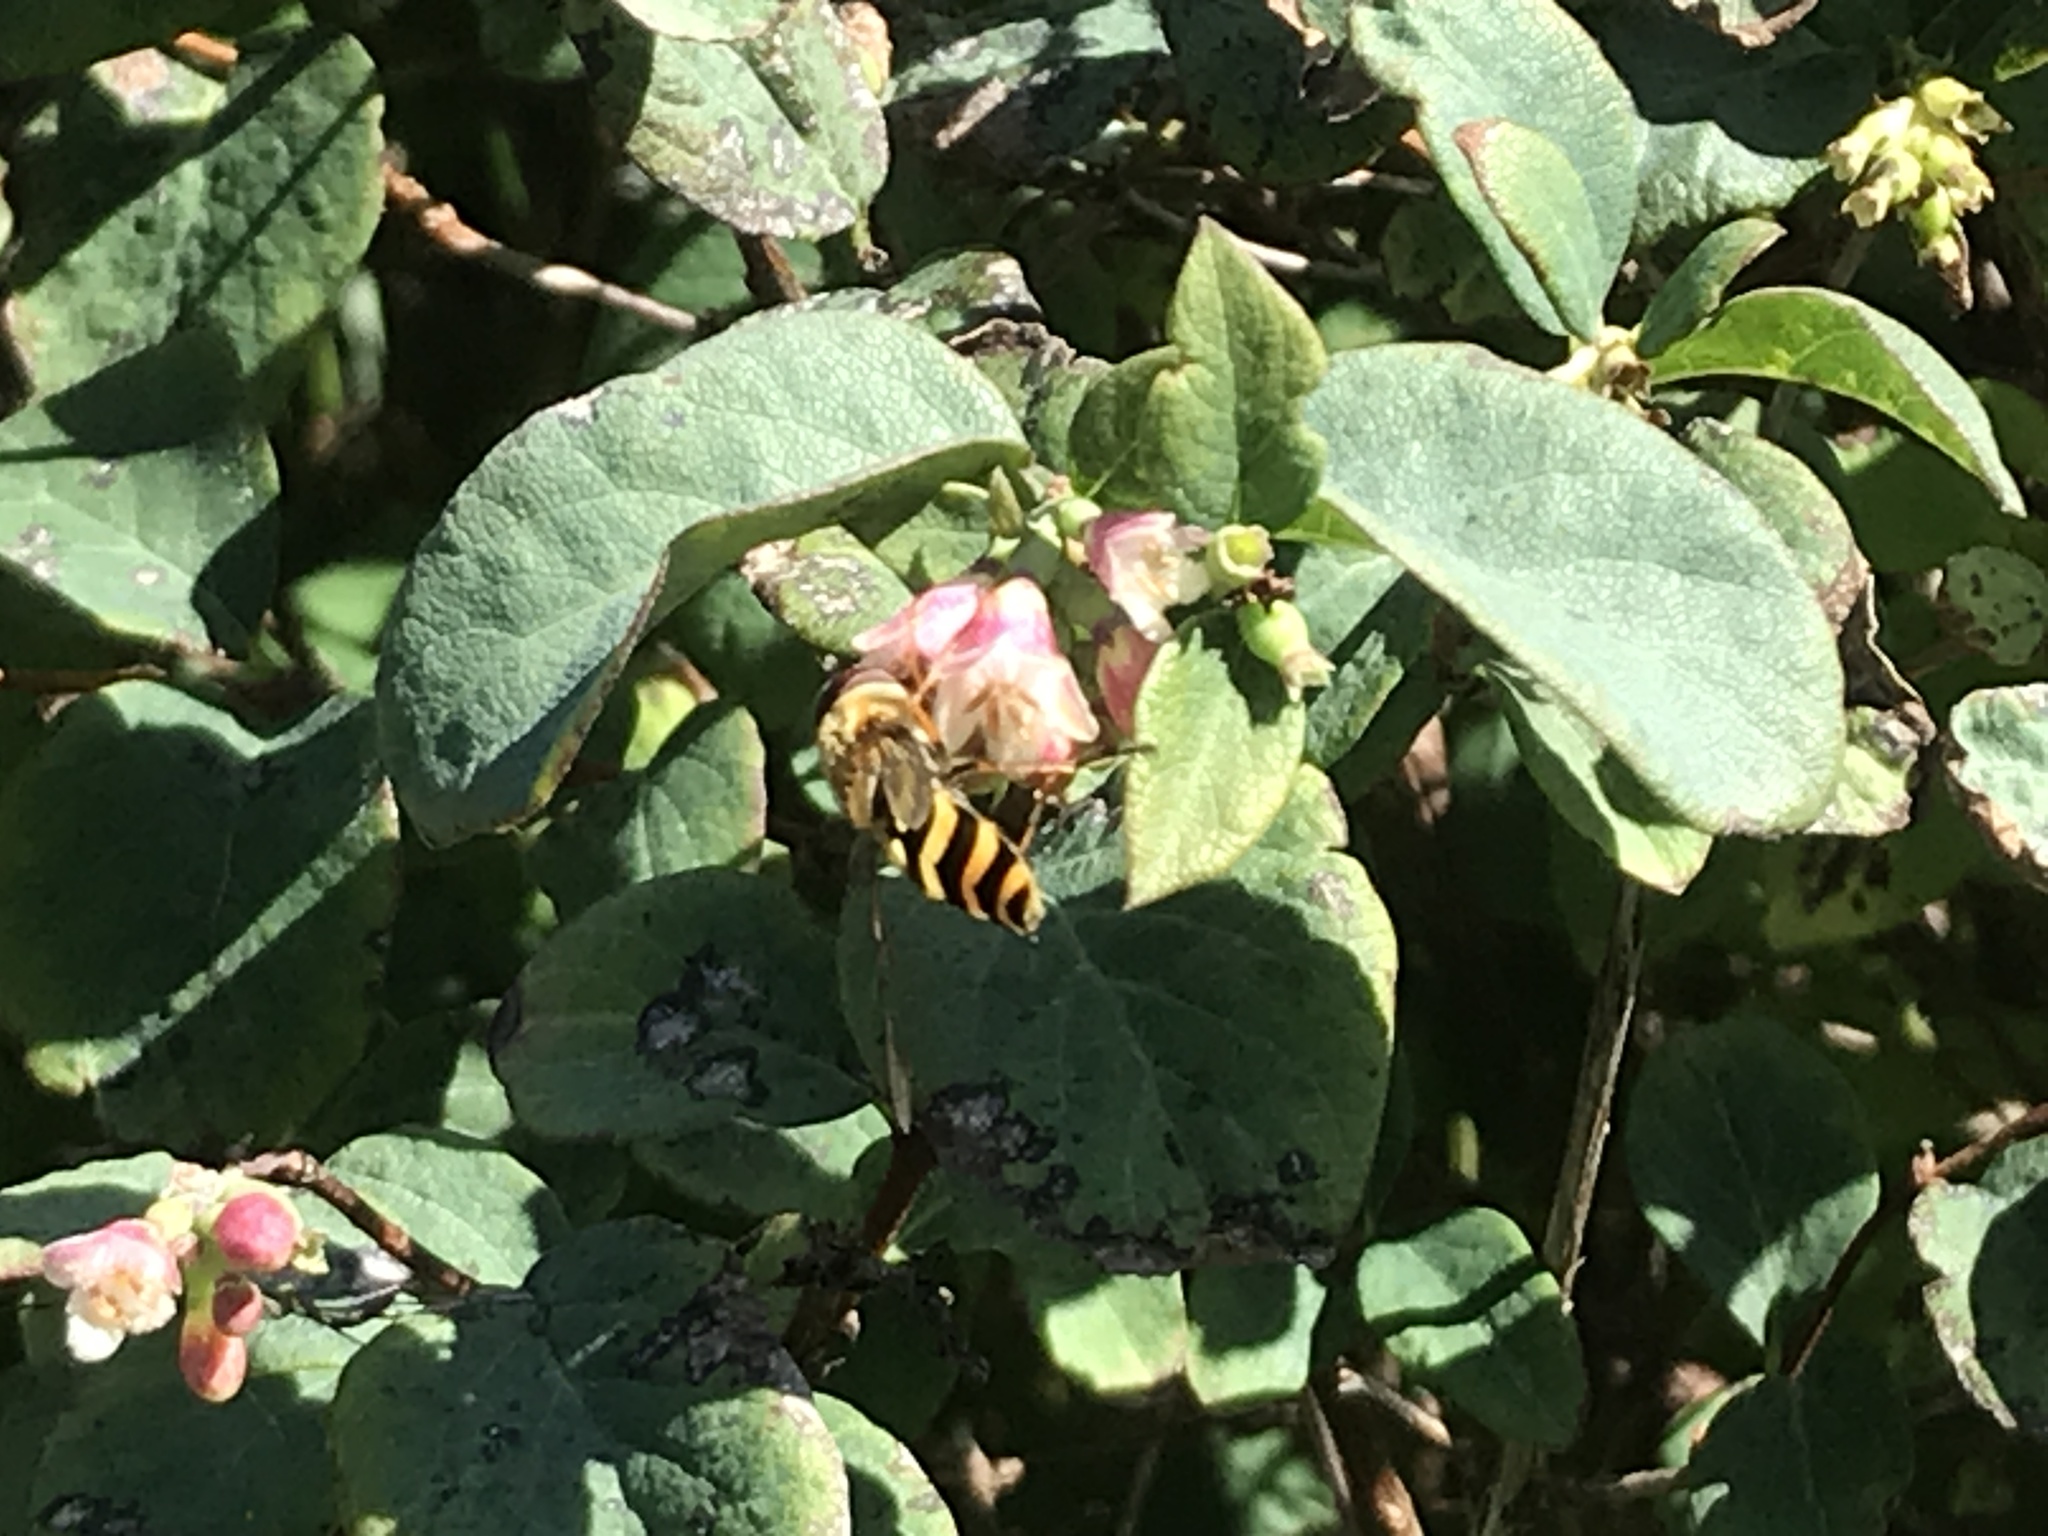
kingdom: Animalia
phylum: Arthropoda
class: Insecta
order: Diptera
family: Syrphidae
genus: Syrphus
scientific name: Syrphus
